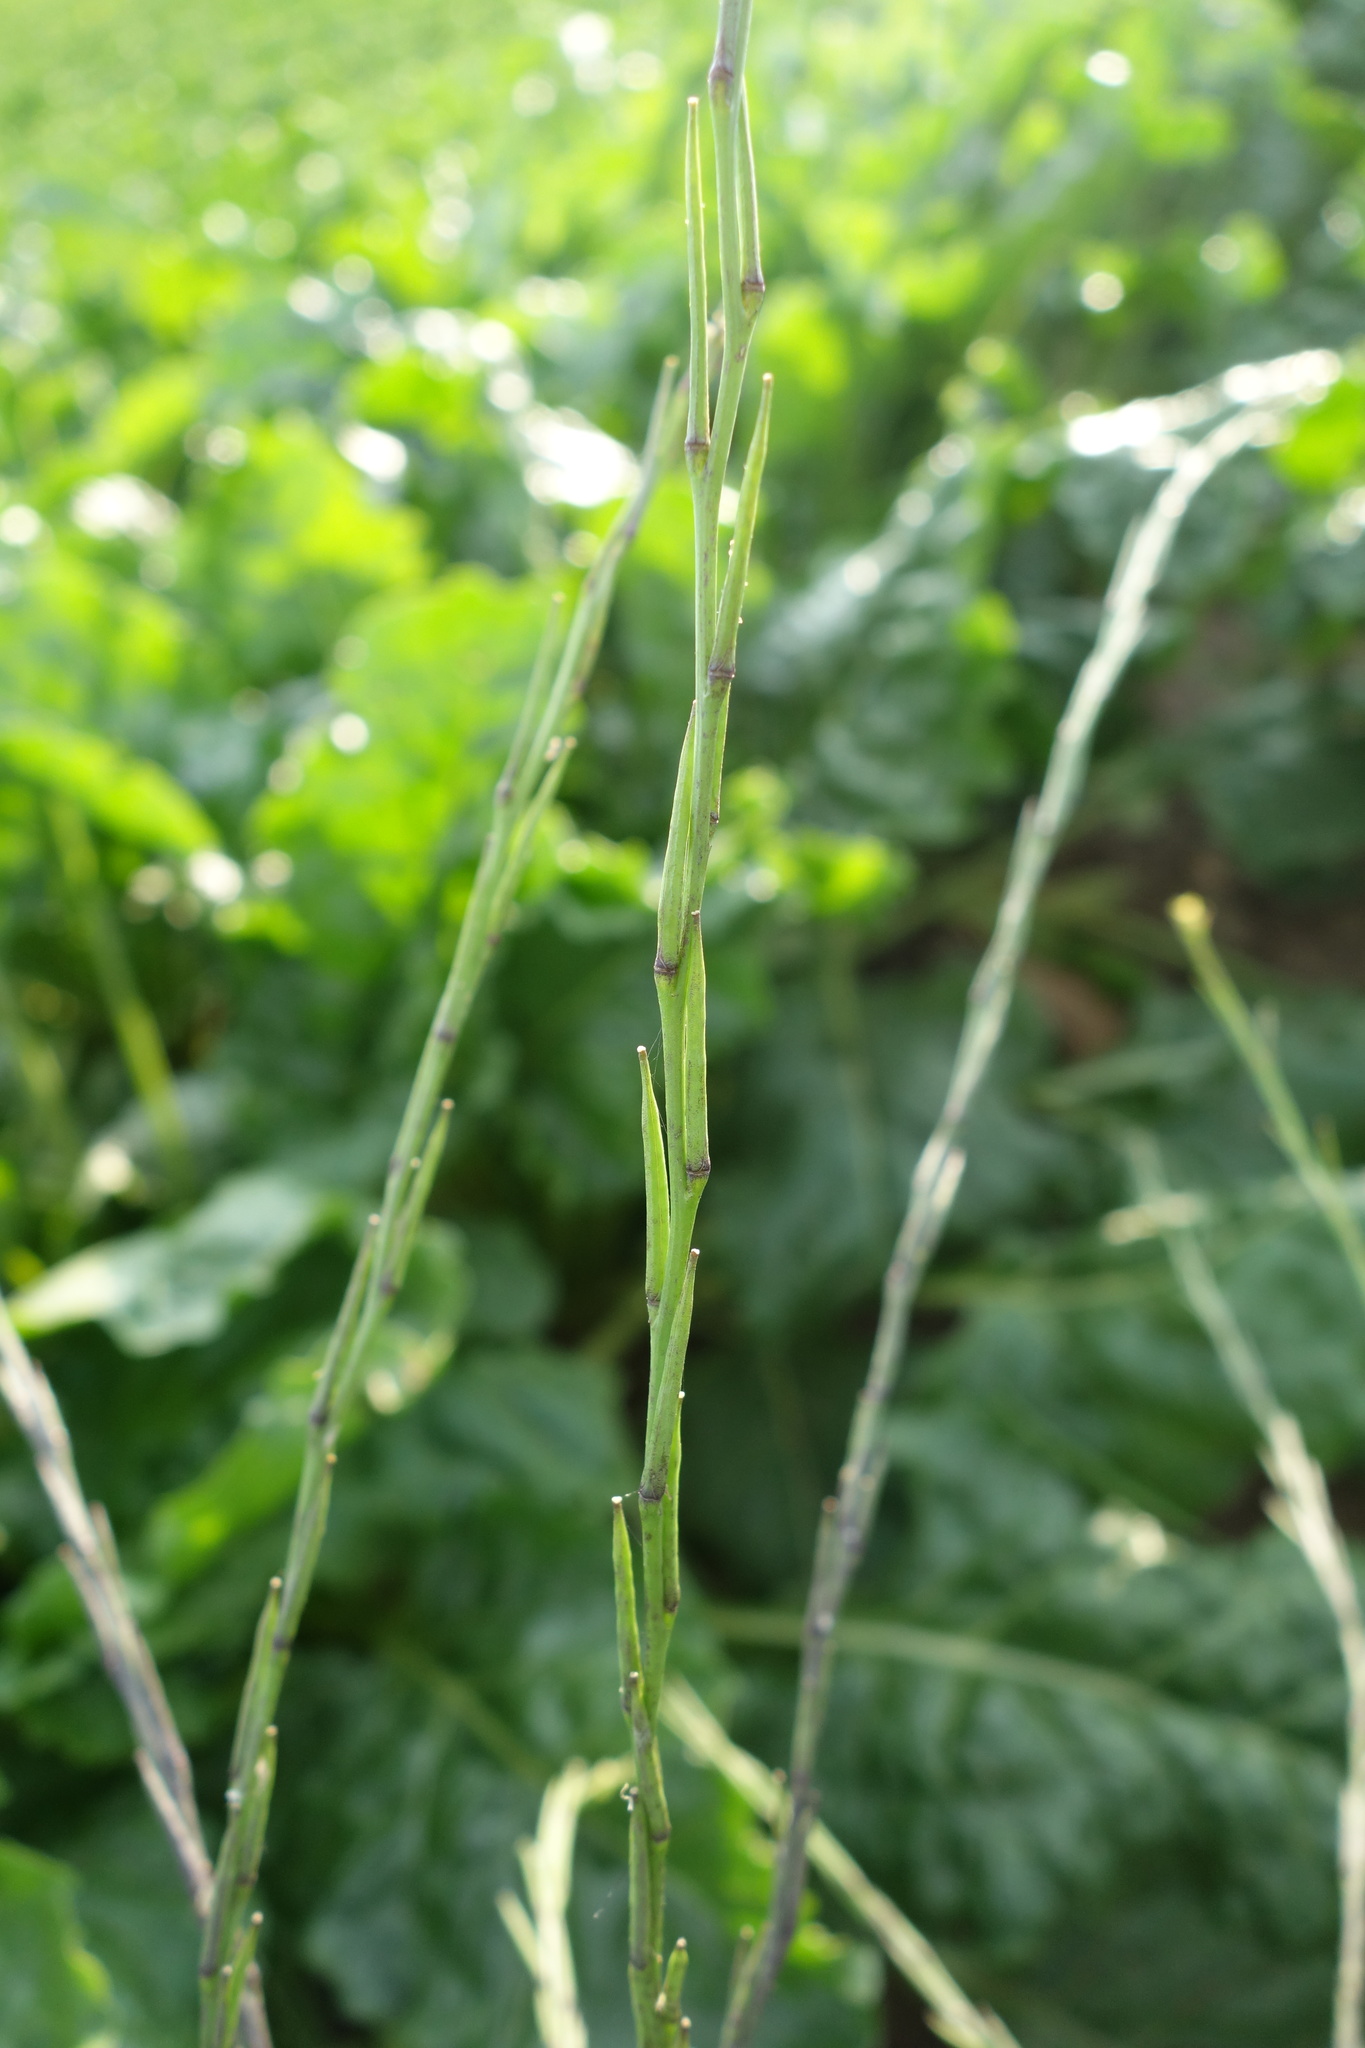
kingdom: Plantae
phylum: Tracheophyta
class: Magnoliopsida
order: Brassicales
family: Brassicaceae
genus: Sisymbrium
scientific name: Sisymbrium officinale
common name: Hedge mustard
